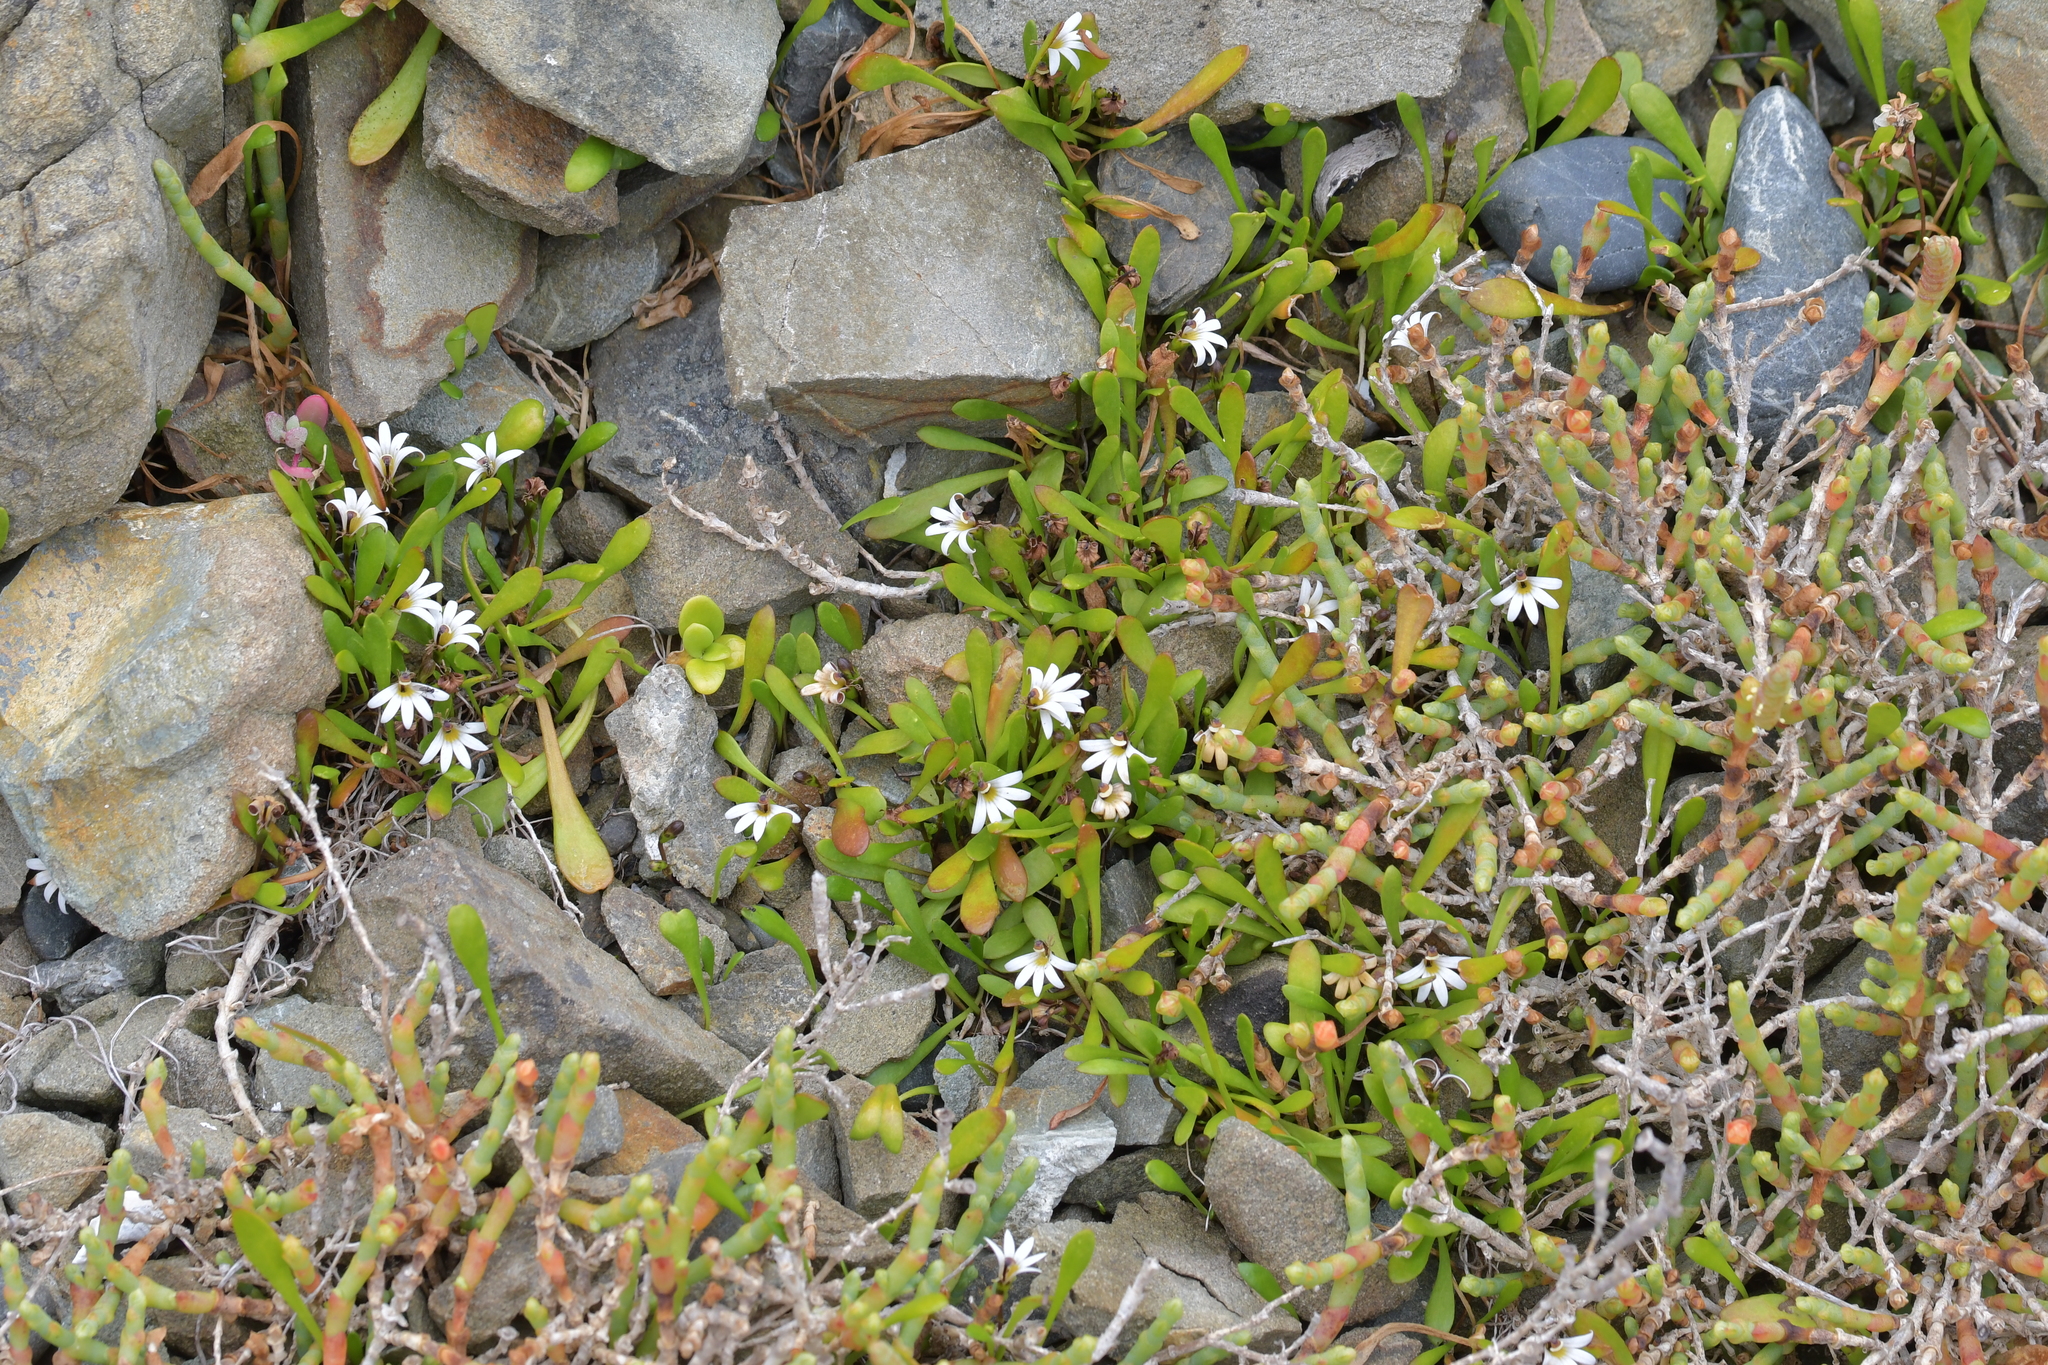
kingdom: Plantae
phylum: Tracheophyta
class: Magnoliopsida
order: Asterales
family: Goodeniaceae
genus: Goodenia
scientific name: Goodenia radicans
